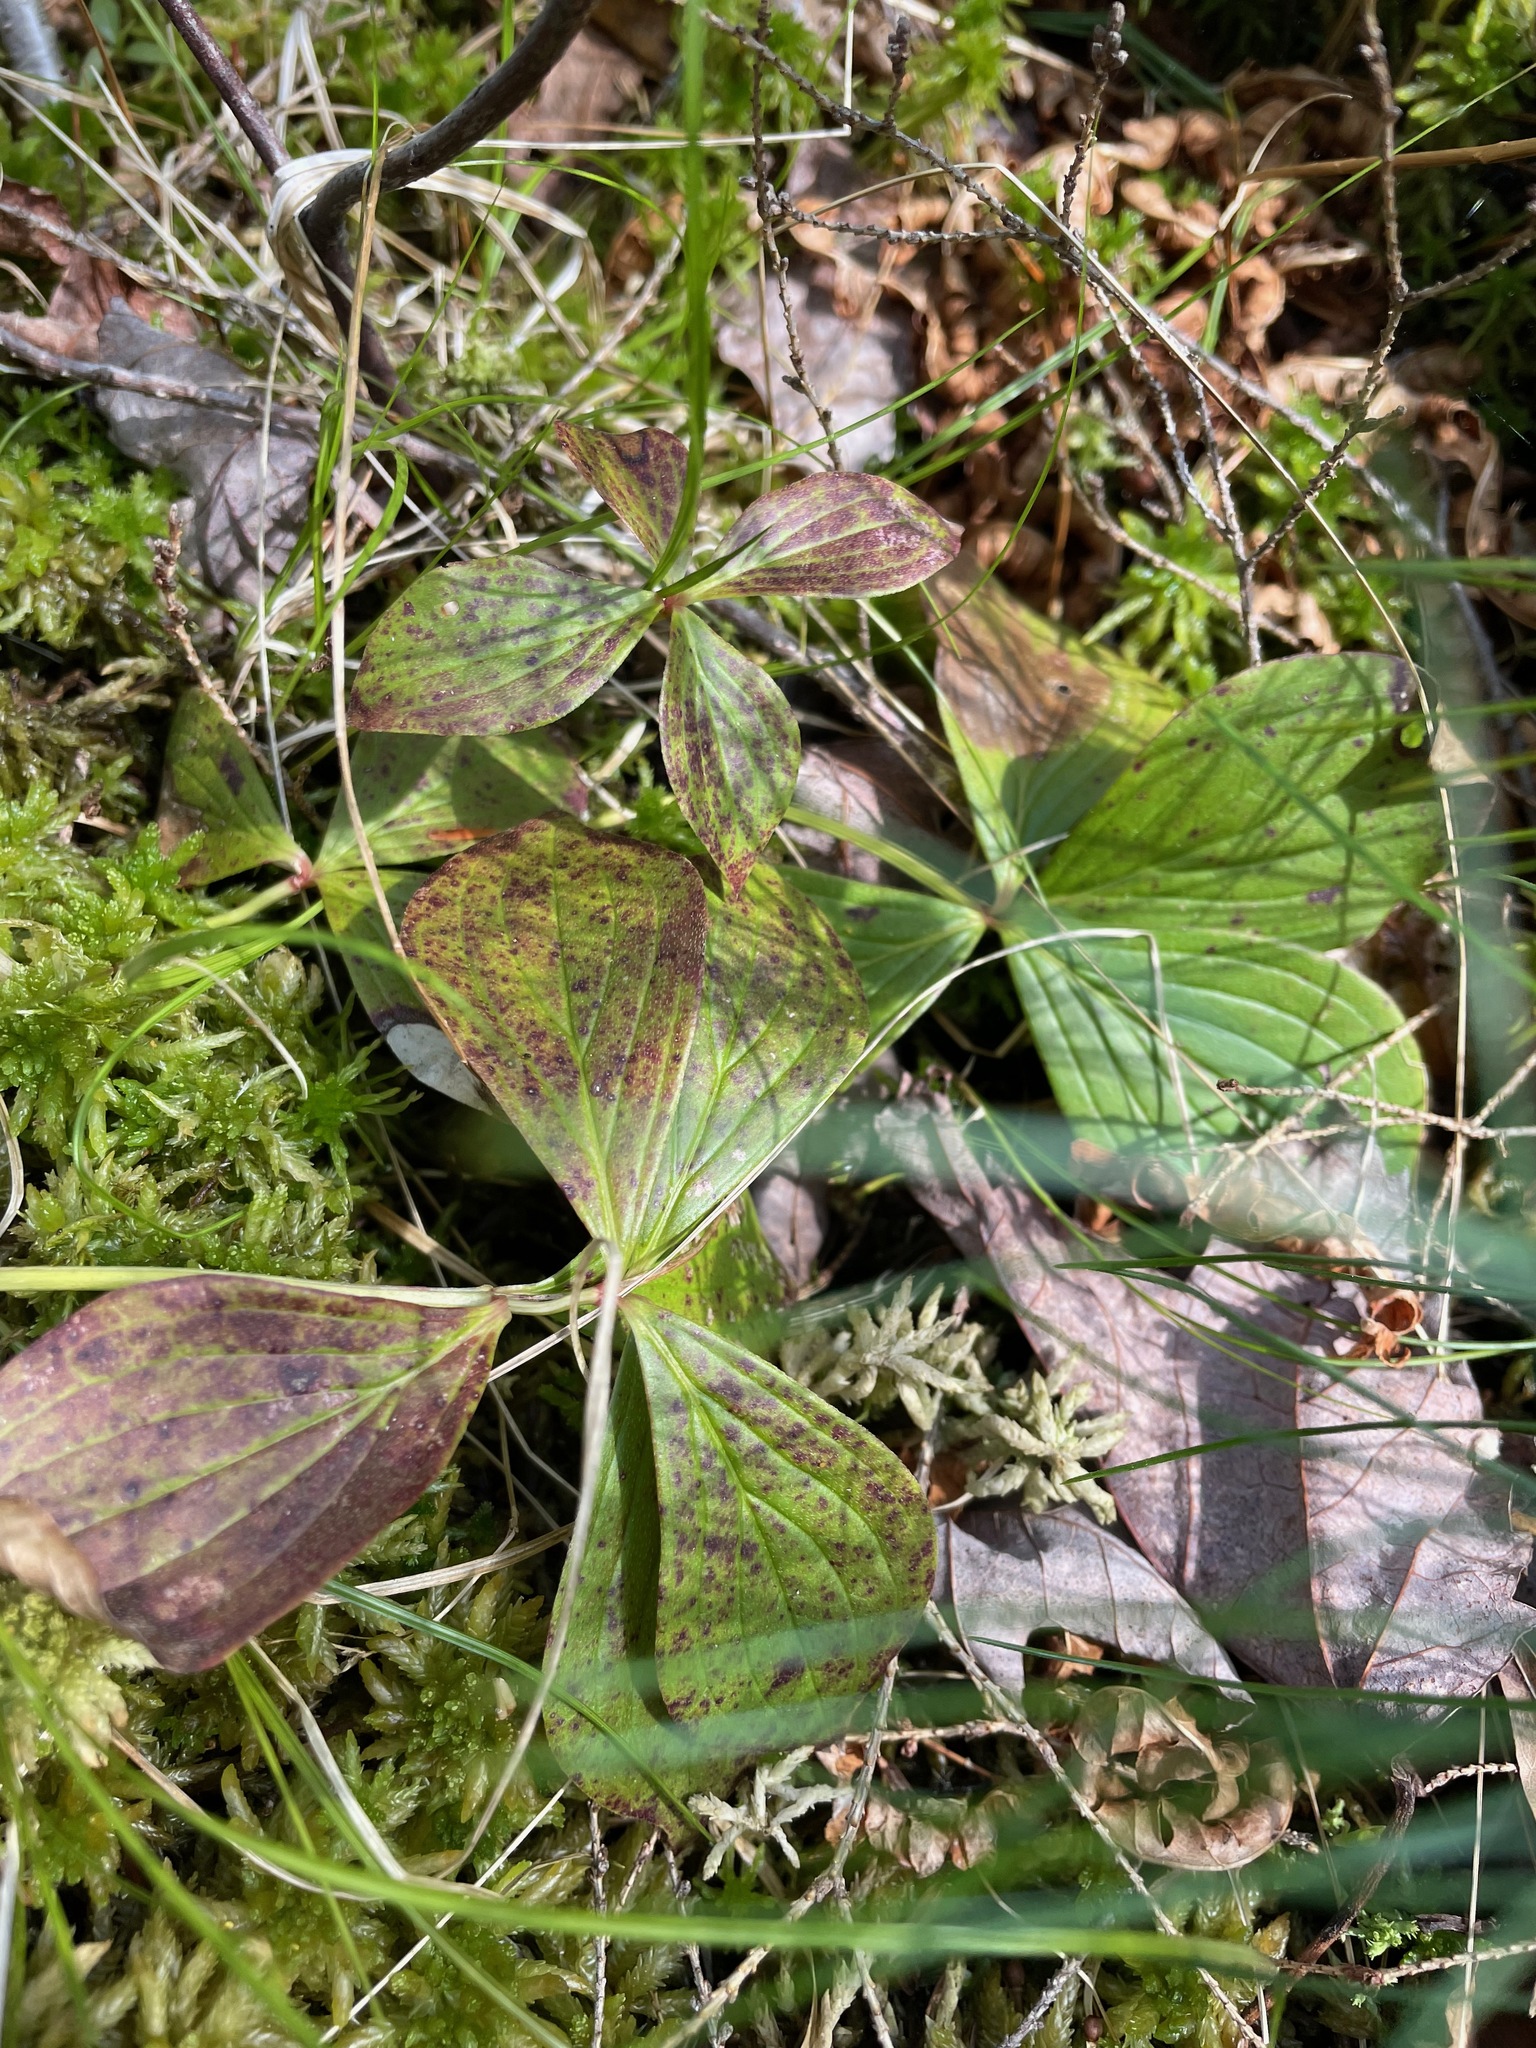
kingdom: Plantae
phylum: Tracheophyta
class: Magnoliopsida
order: Cornales
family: Cornaceae
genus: Cornus
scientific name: Cornus canadensis
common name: Creeping dogwood
